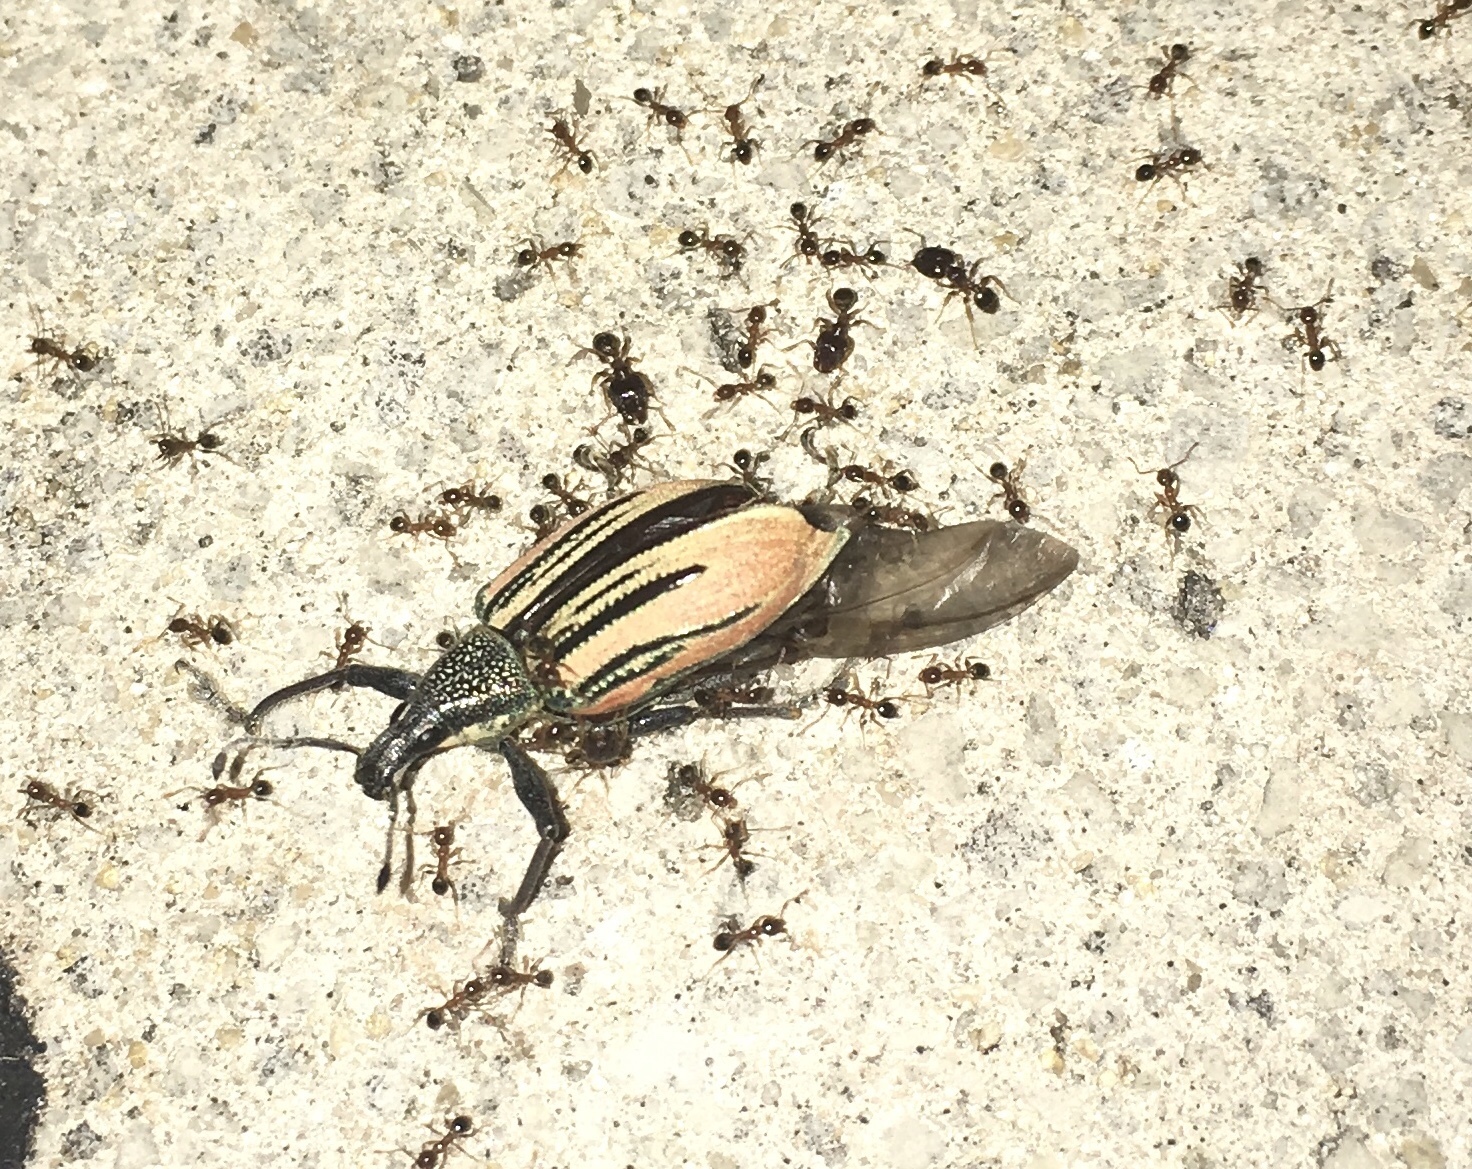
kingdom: Animalia
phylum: Arthropoda
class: Insecta
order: Coleoptera
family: Curculionidae
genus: Diaprepes
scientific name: Diaprepes abbreviatus
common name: Root weevil
